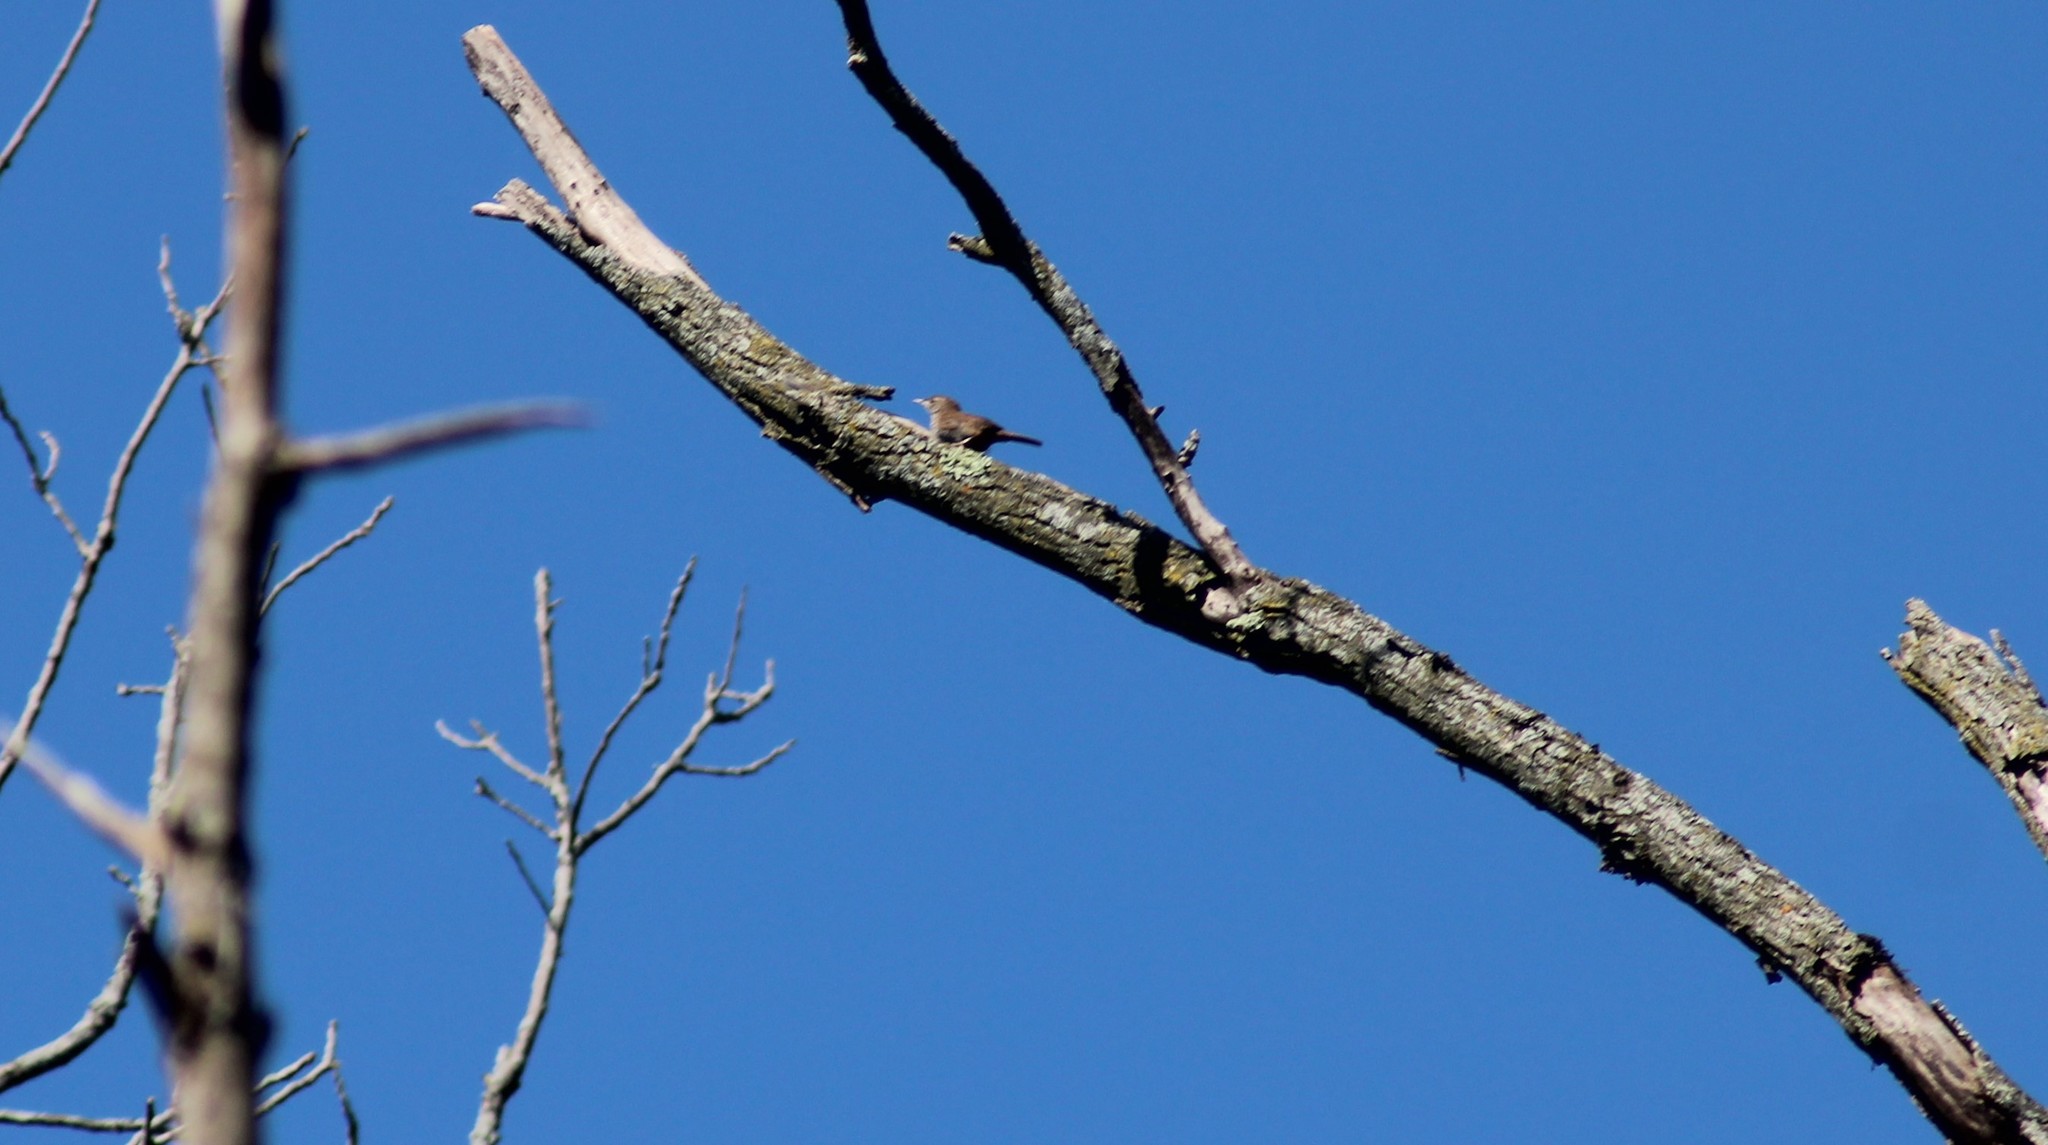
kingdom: Animalia
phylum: Chordata
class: Aves
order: Passeriformes
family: Troglodytidae
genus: Troglodytes
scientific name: Troglodytes aedon
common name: House wren
